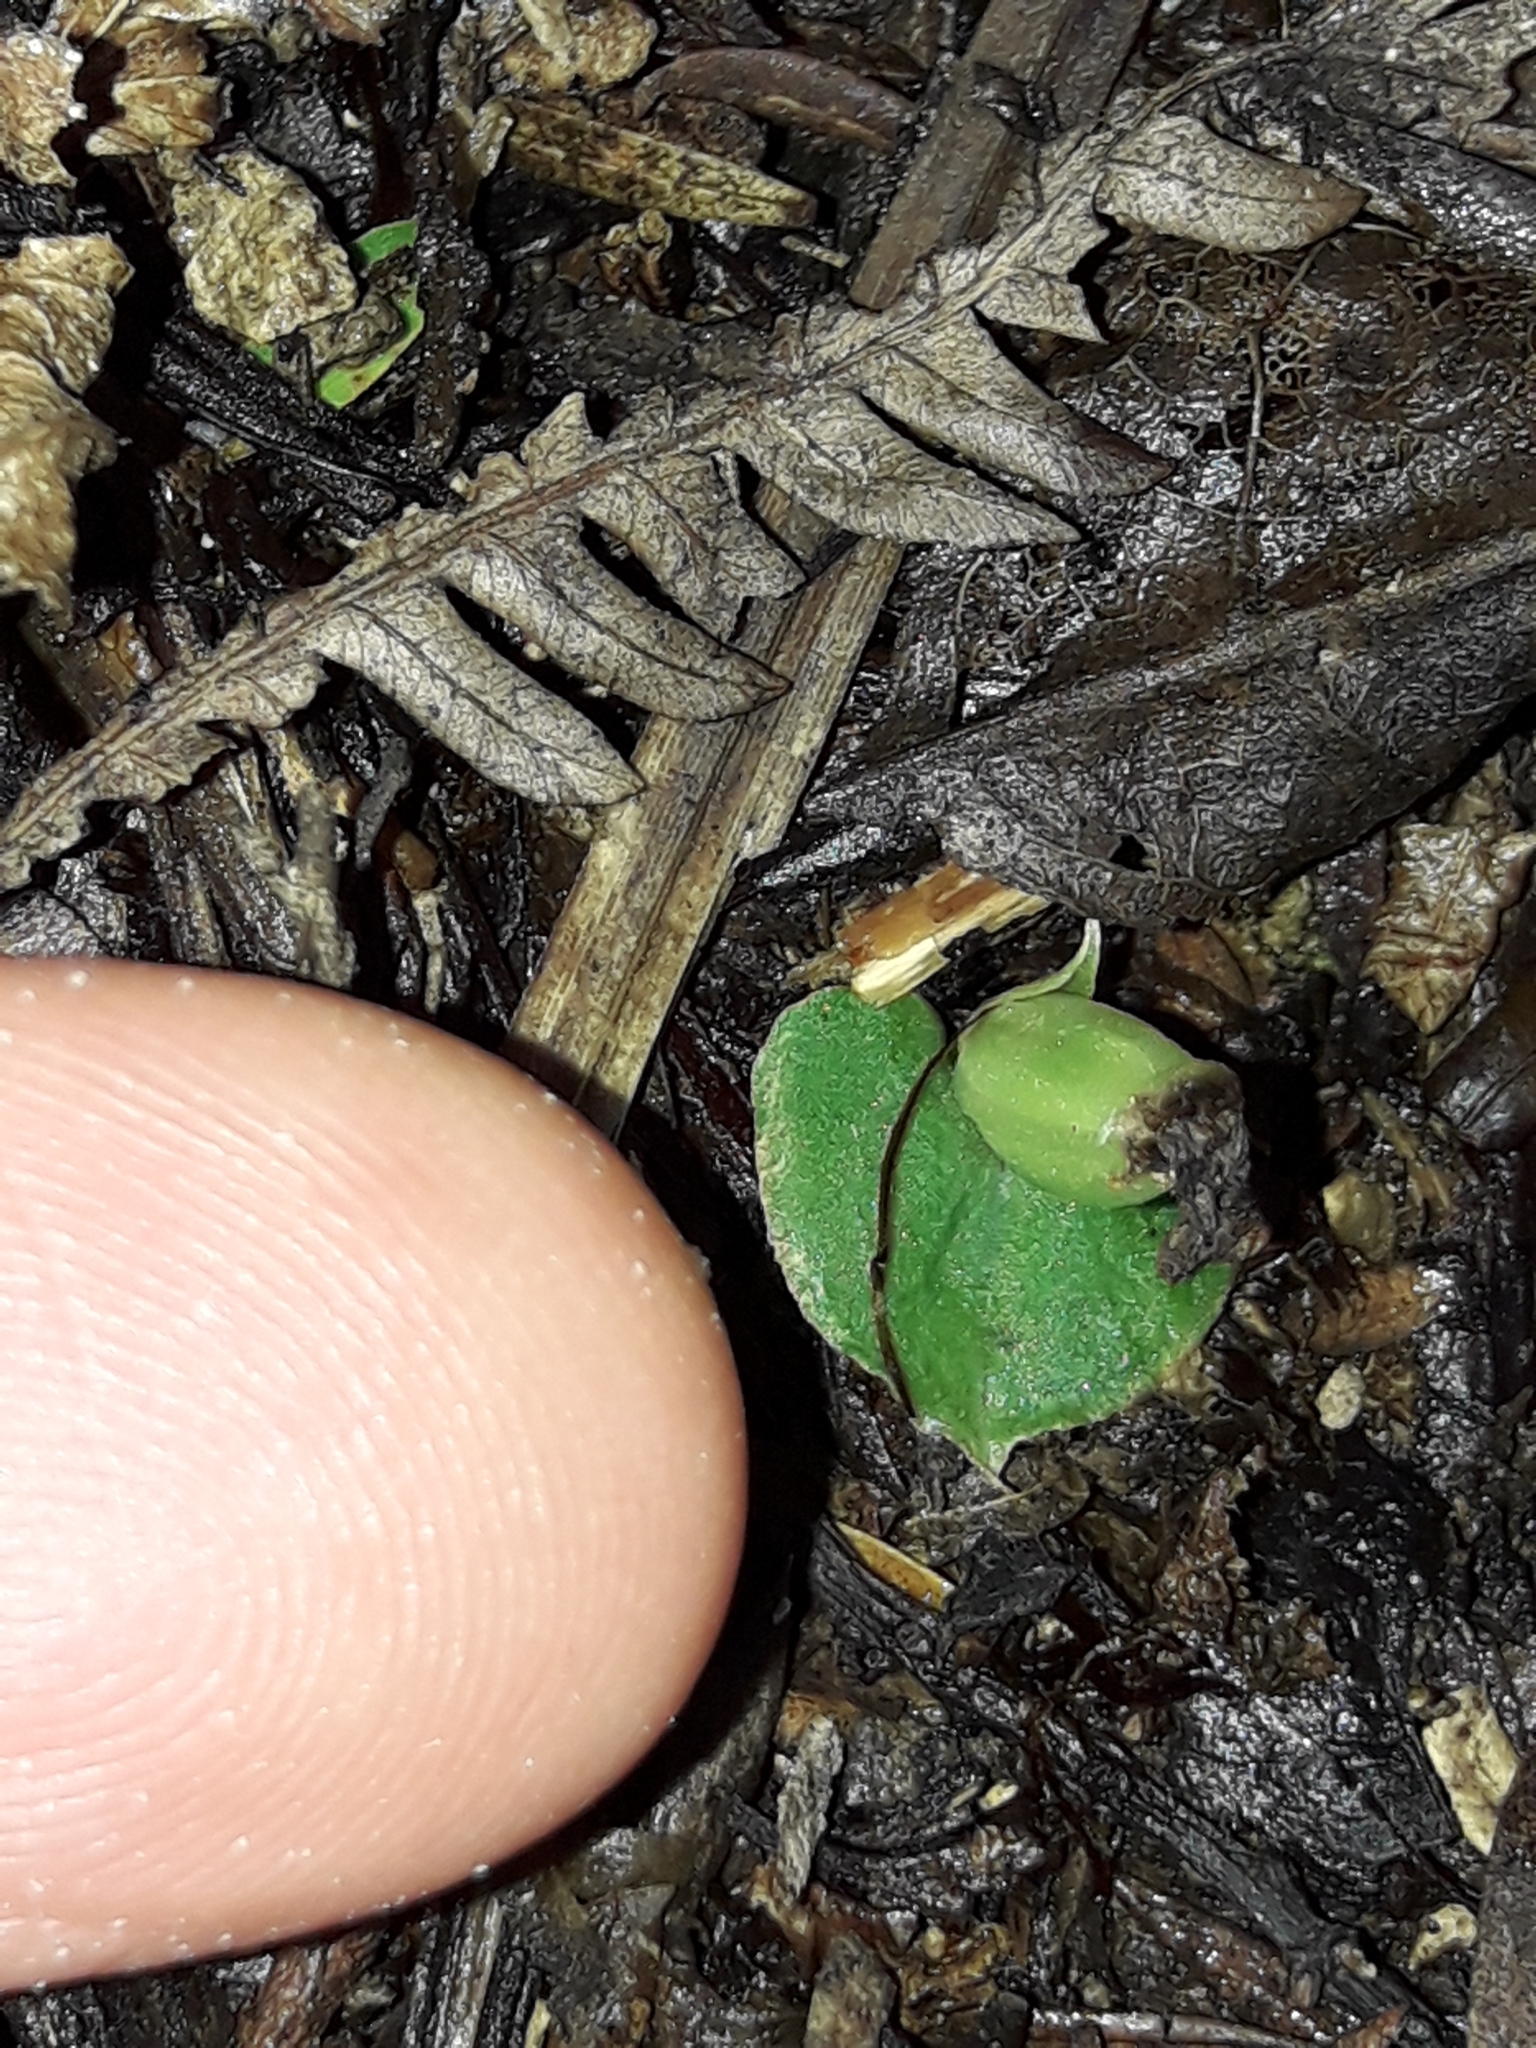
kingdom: Plantae
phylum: Tracheophyta
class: Liliopsida
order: Asparagales
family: Orchidaceae
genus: Corybas
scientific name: Corybas cheesemanii
